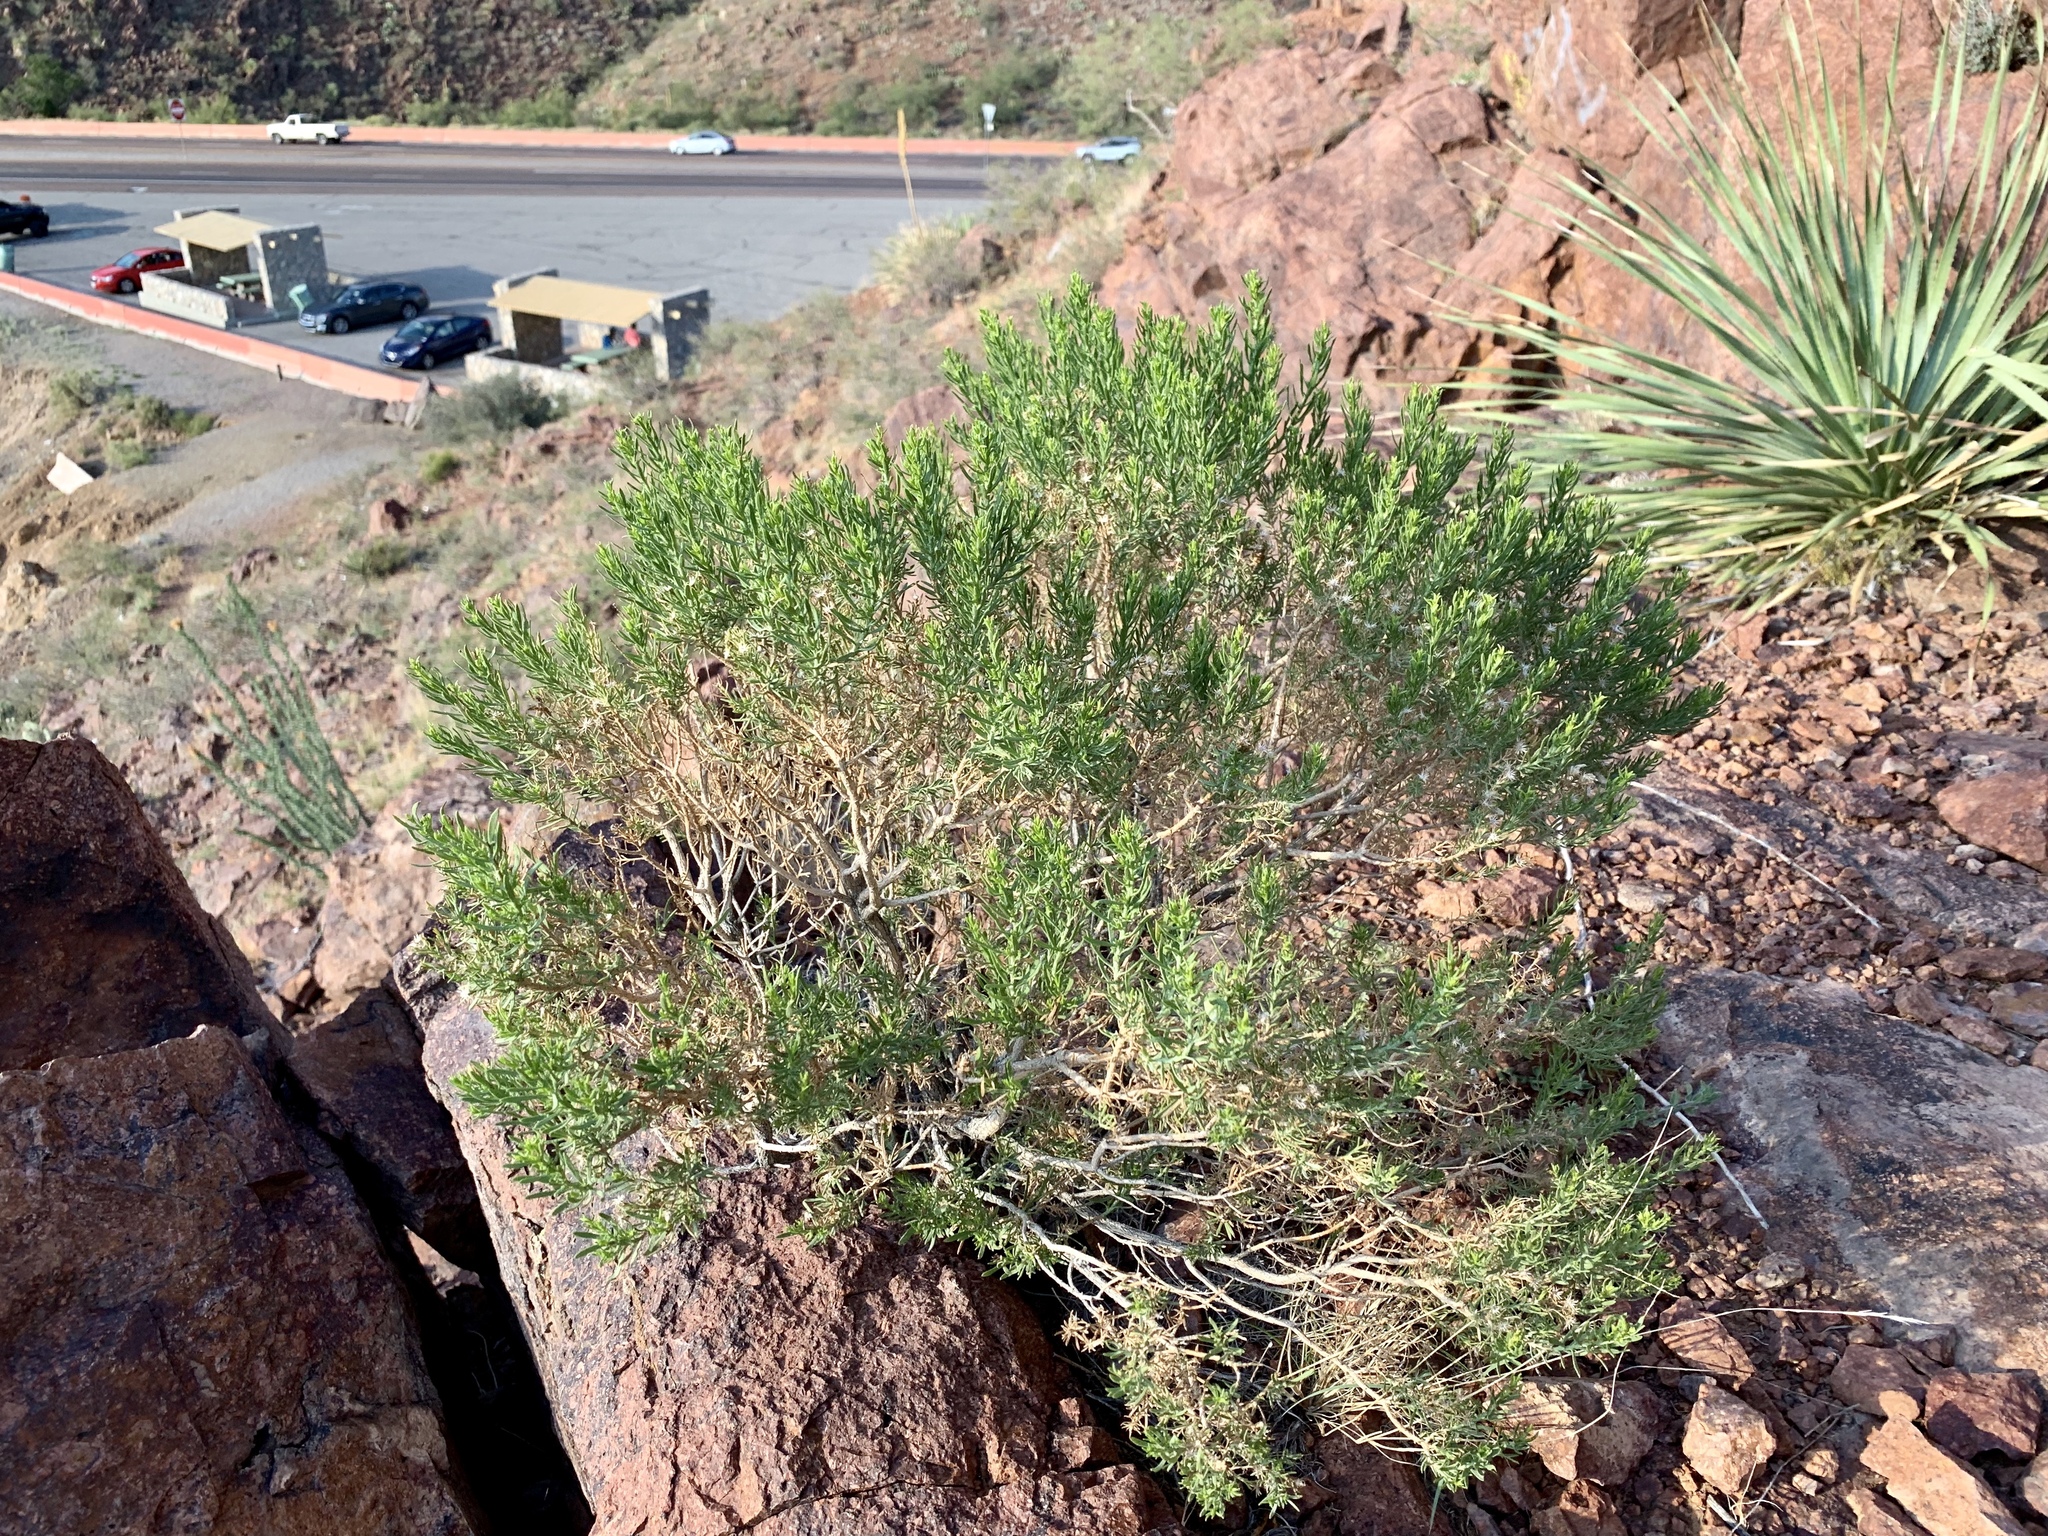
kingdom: Plantae
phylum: Tracheophyta
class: Magnoliopsida
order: Asterales
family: Asteraceae
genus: Ericameria
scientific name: Ericameria laricifolia
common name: Turpentine-bush
